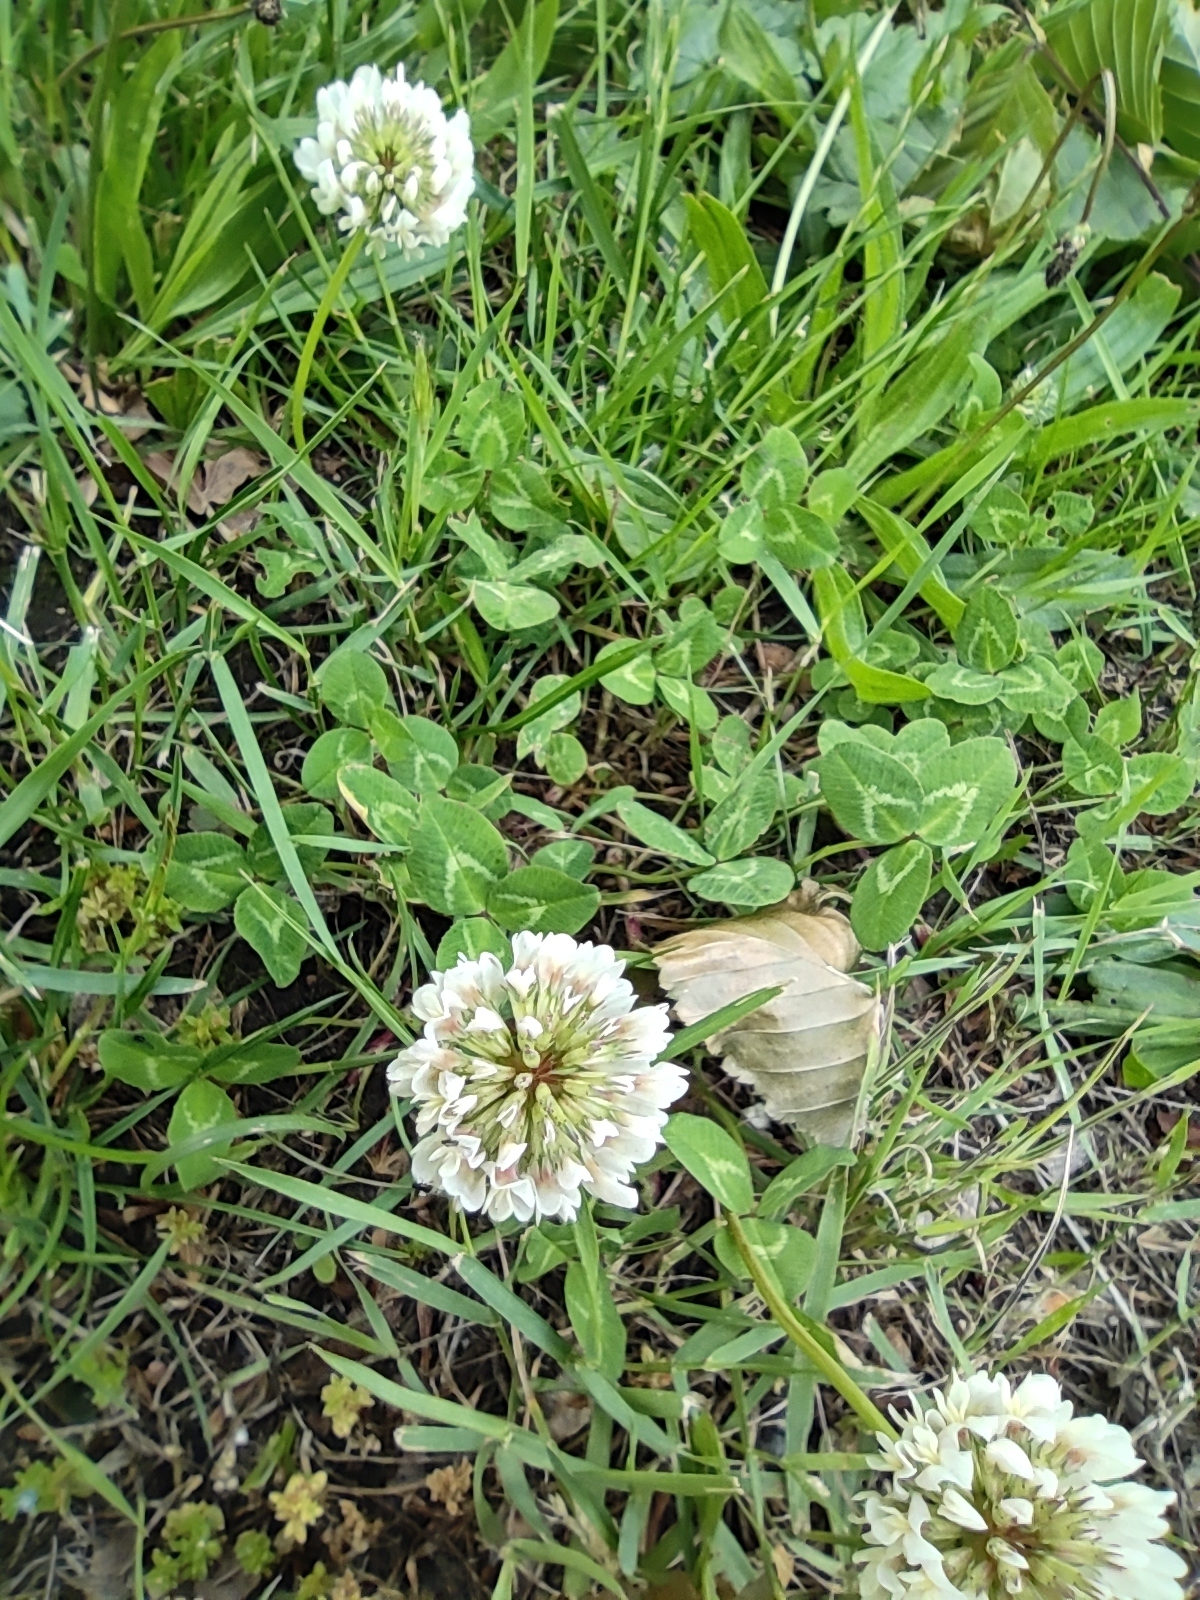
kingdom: Plantae
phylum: Tracheophyta
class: Magnoliopsida
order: Fabales
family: Fabaceae
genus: Trifolium
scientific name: Trifolium repens
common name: White clover
